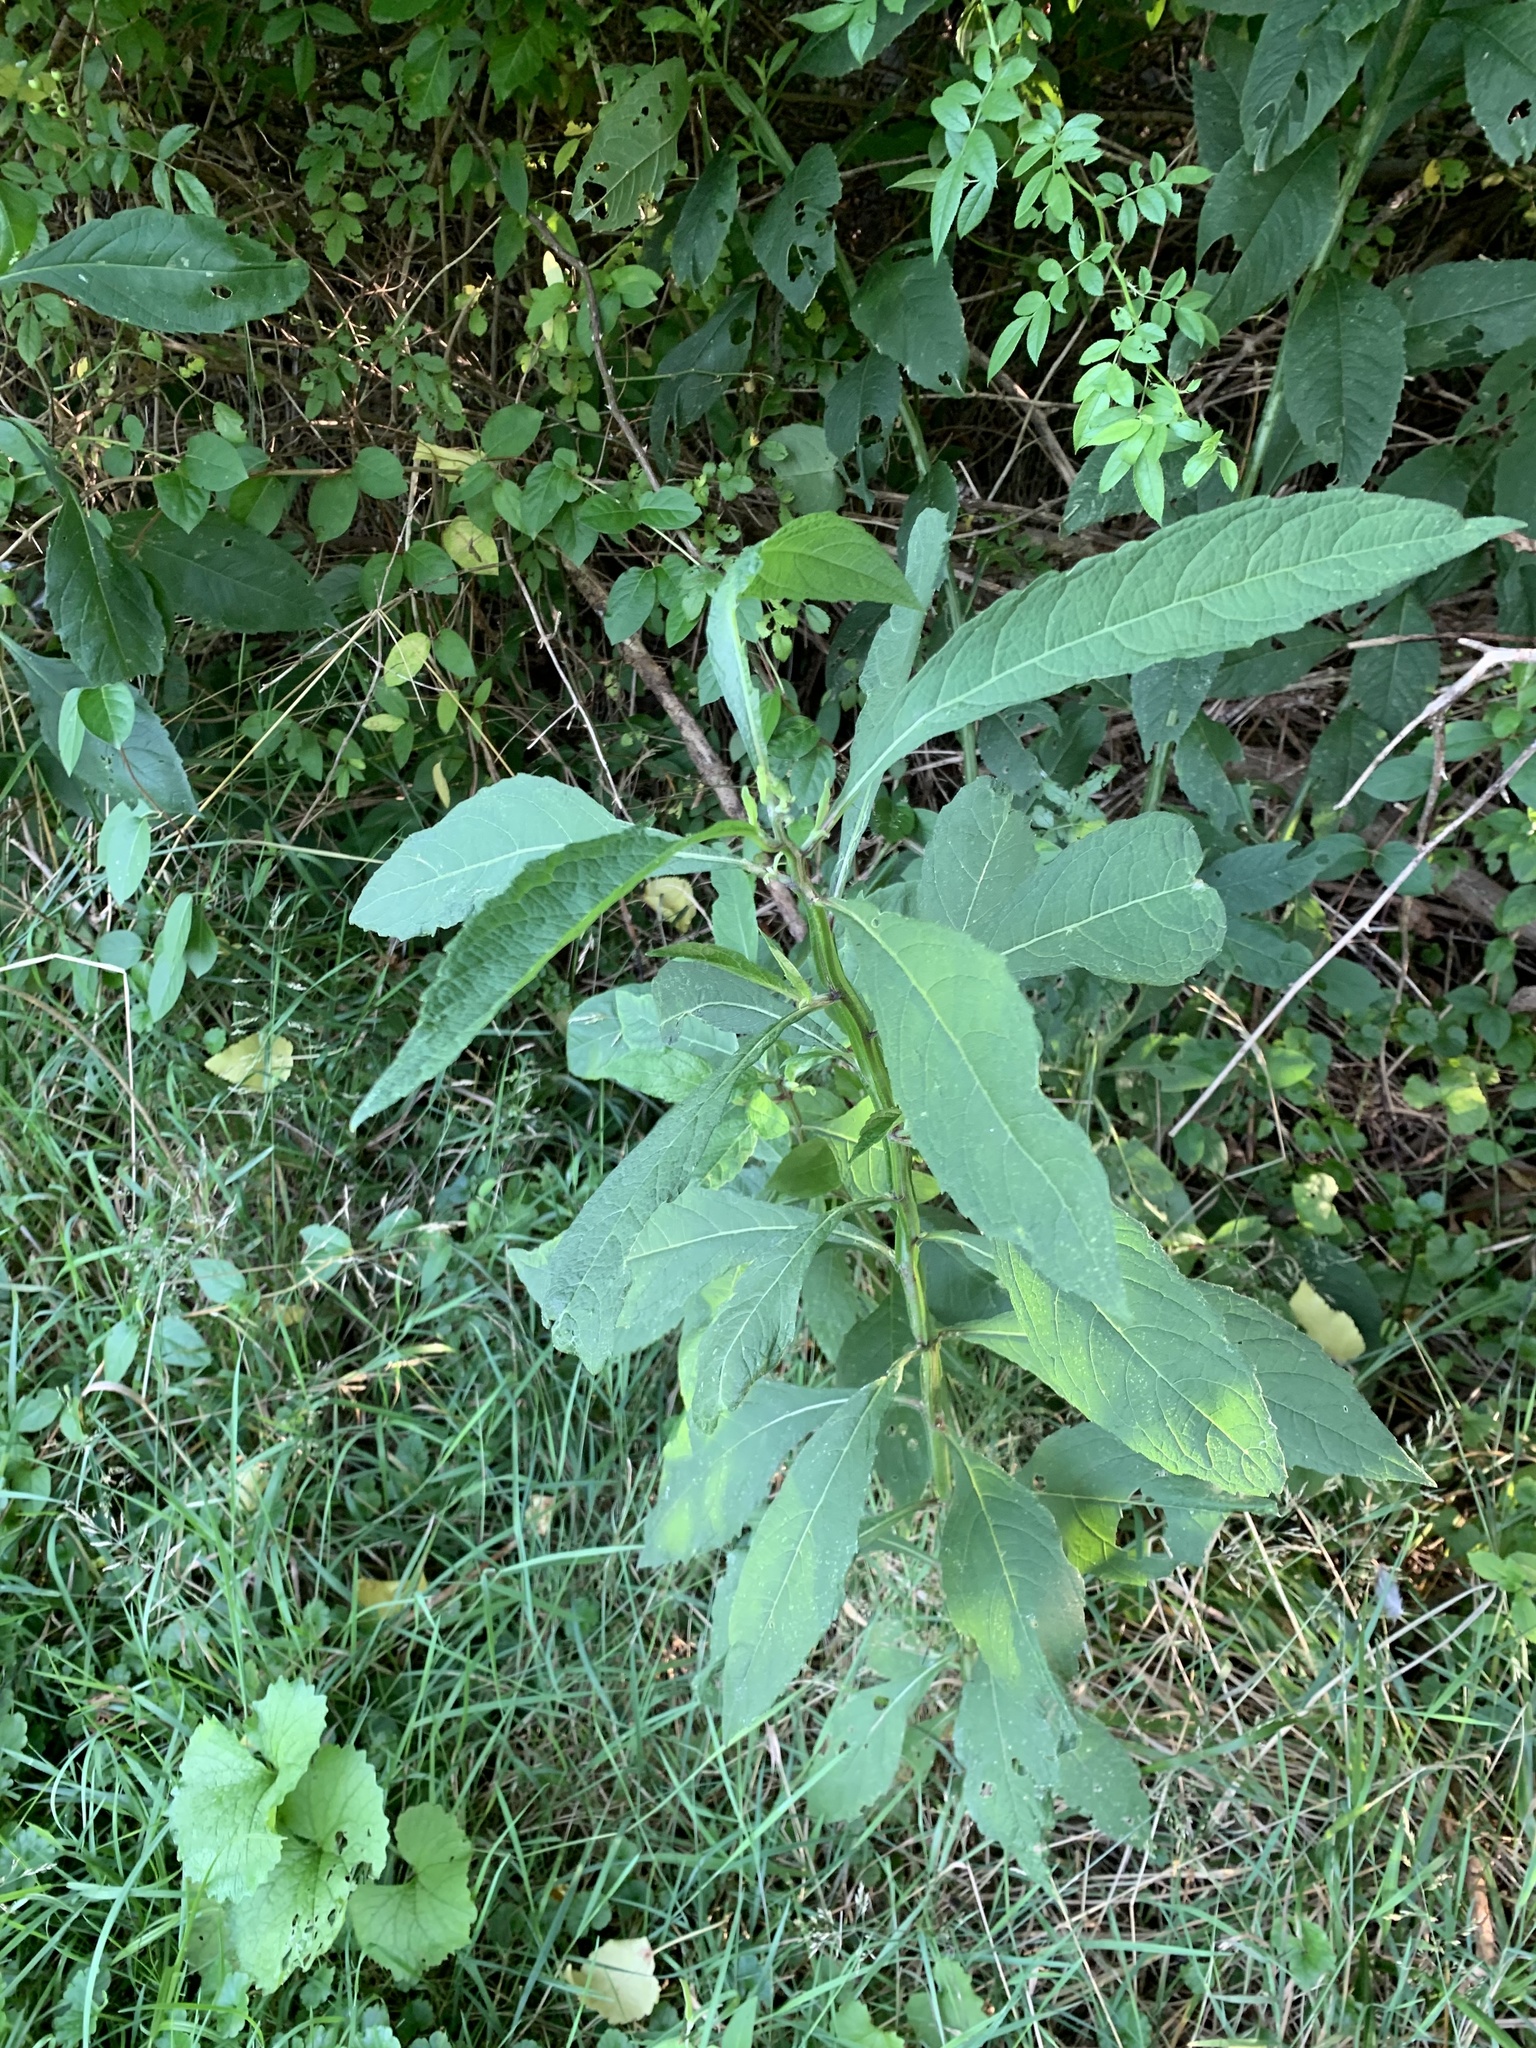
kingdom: Plantae
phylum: Tracheophyta
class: Magnoliopsida
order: Asterales
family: Asteraceae
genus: Verbesina
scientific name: Verbesina alternifolia
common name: Wingstem
